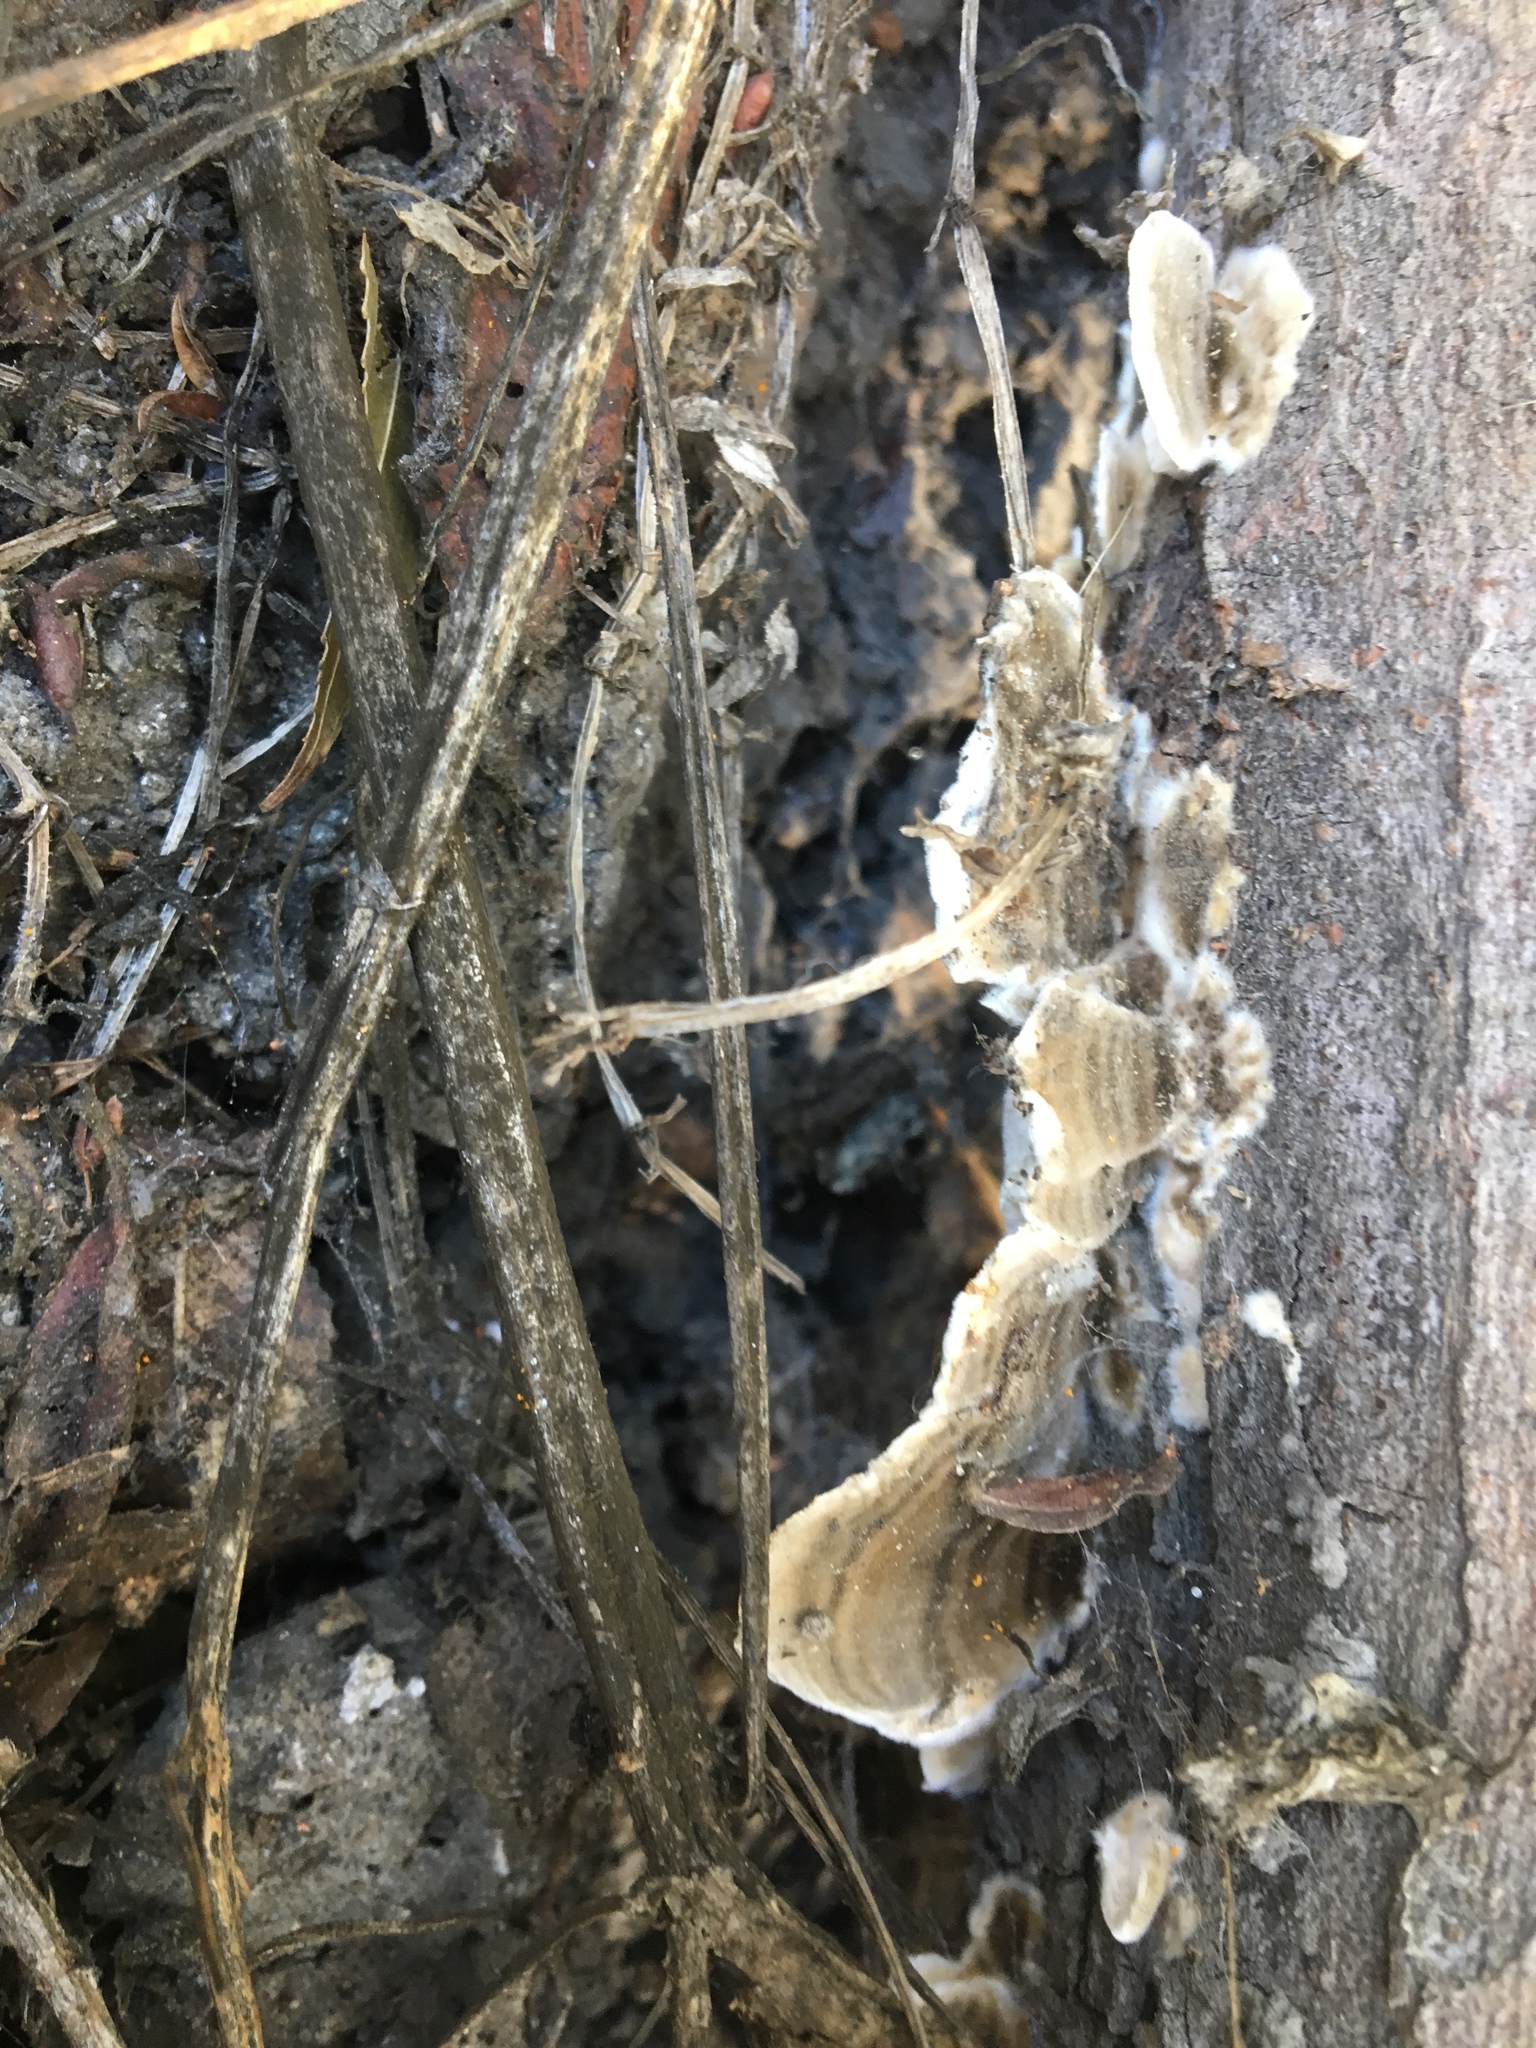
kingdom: Fungi
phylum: Basidiomycota
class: Agaricomycetes
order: Polyporales
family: Polyporaceae
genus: Trametes
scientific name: Trametes versicolor
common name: Turkeytail
